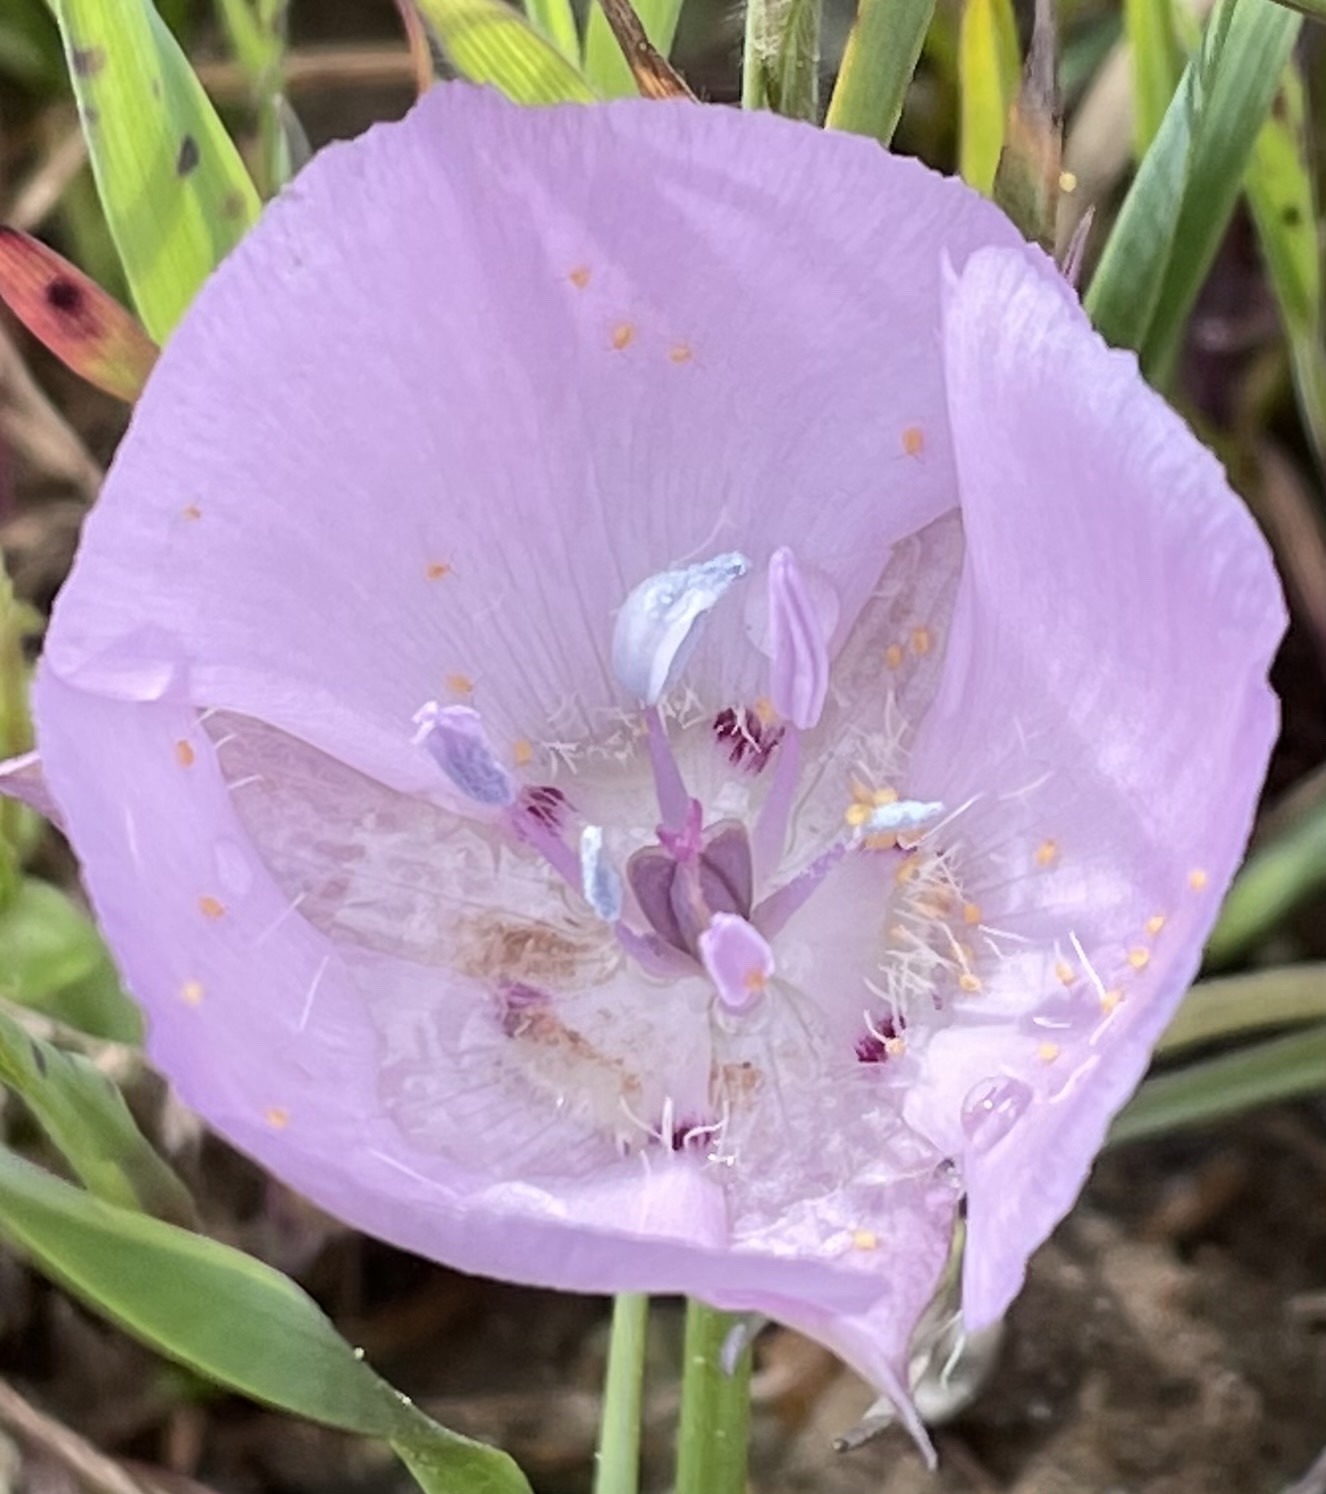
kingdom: Plantae
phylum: Tracheophyta
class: Liliopsida
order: Liliales
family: Liliaceae
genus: Calochortus
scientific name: Calochortus uniflorus
